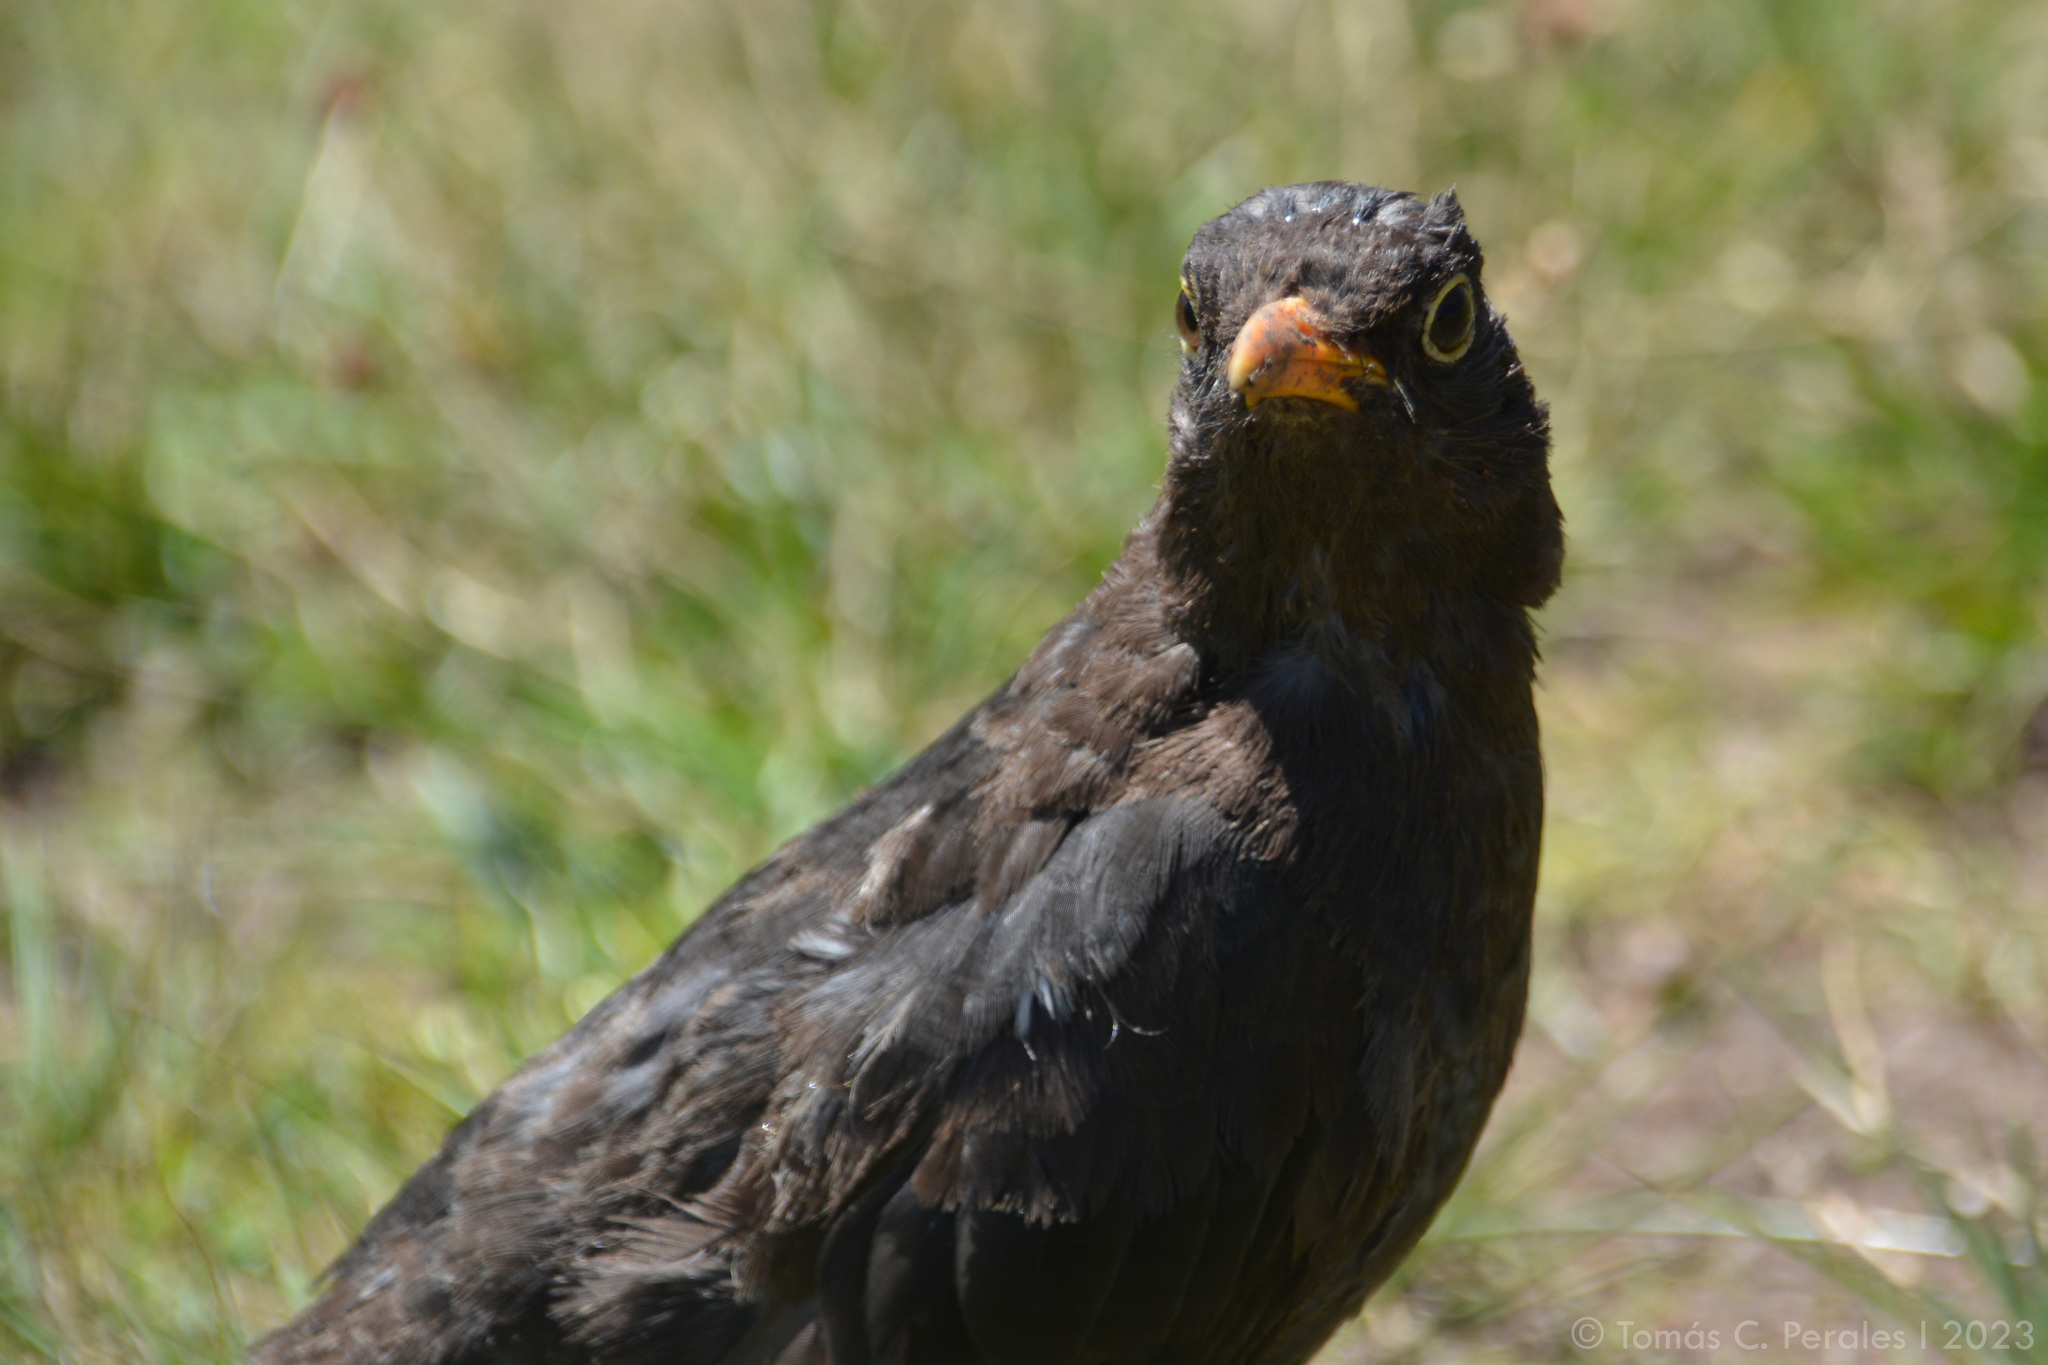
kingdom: Animalia
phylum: Chordata
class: Aves
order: Passeriformes
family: Turdidae
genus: Turdus
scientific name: Turdus chiguanco
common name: Chiguanco thrush
